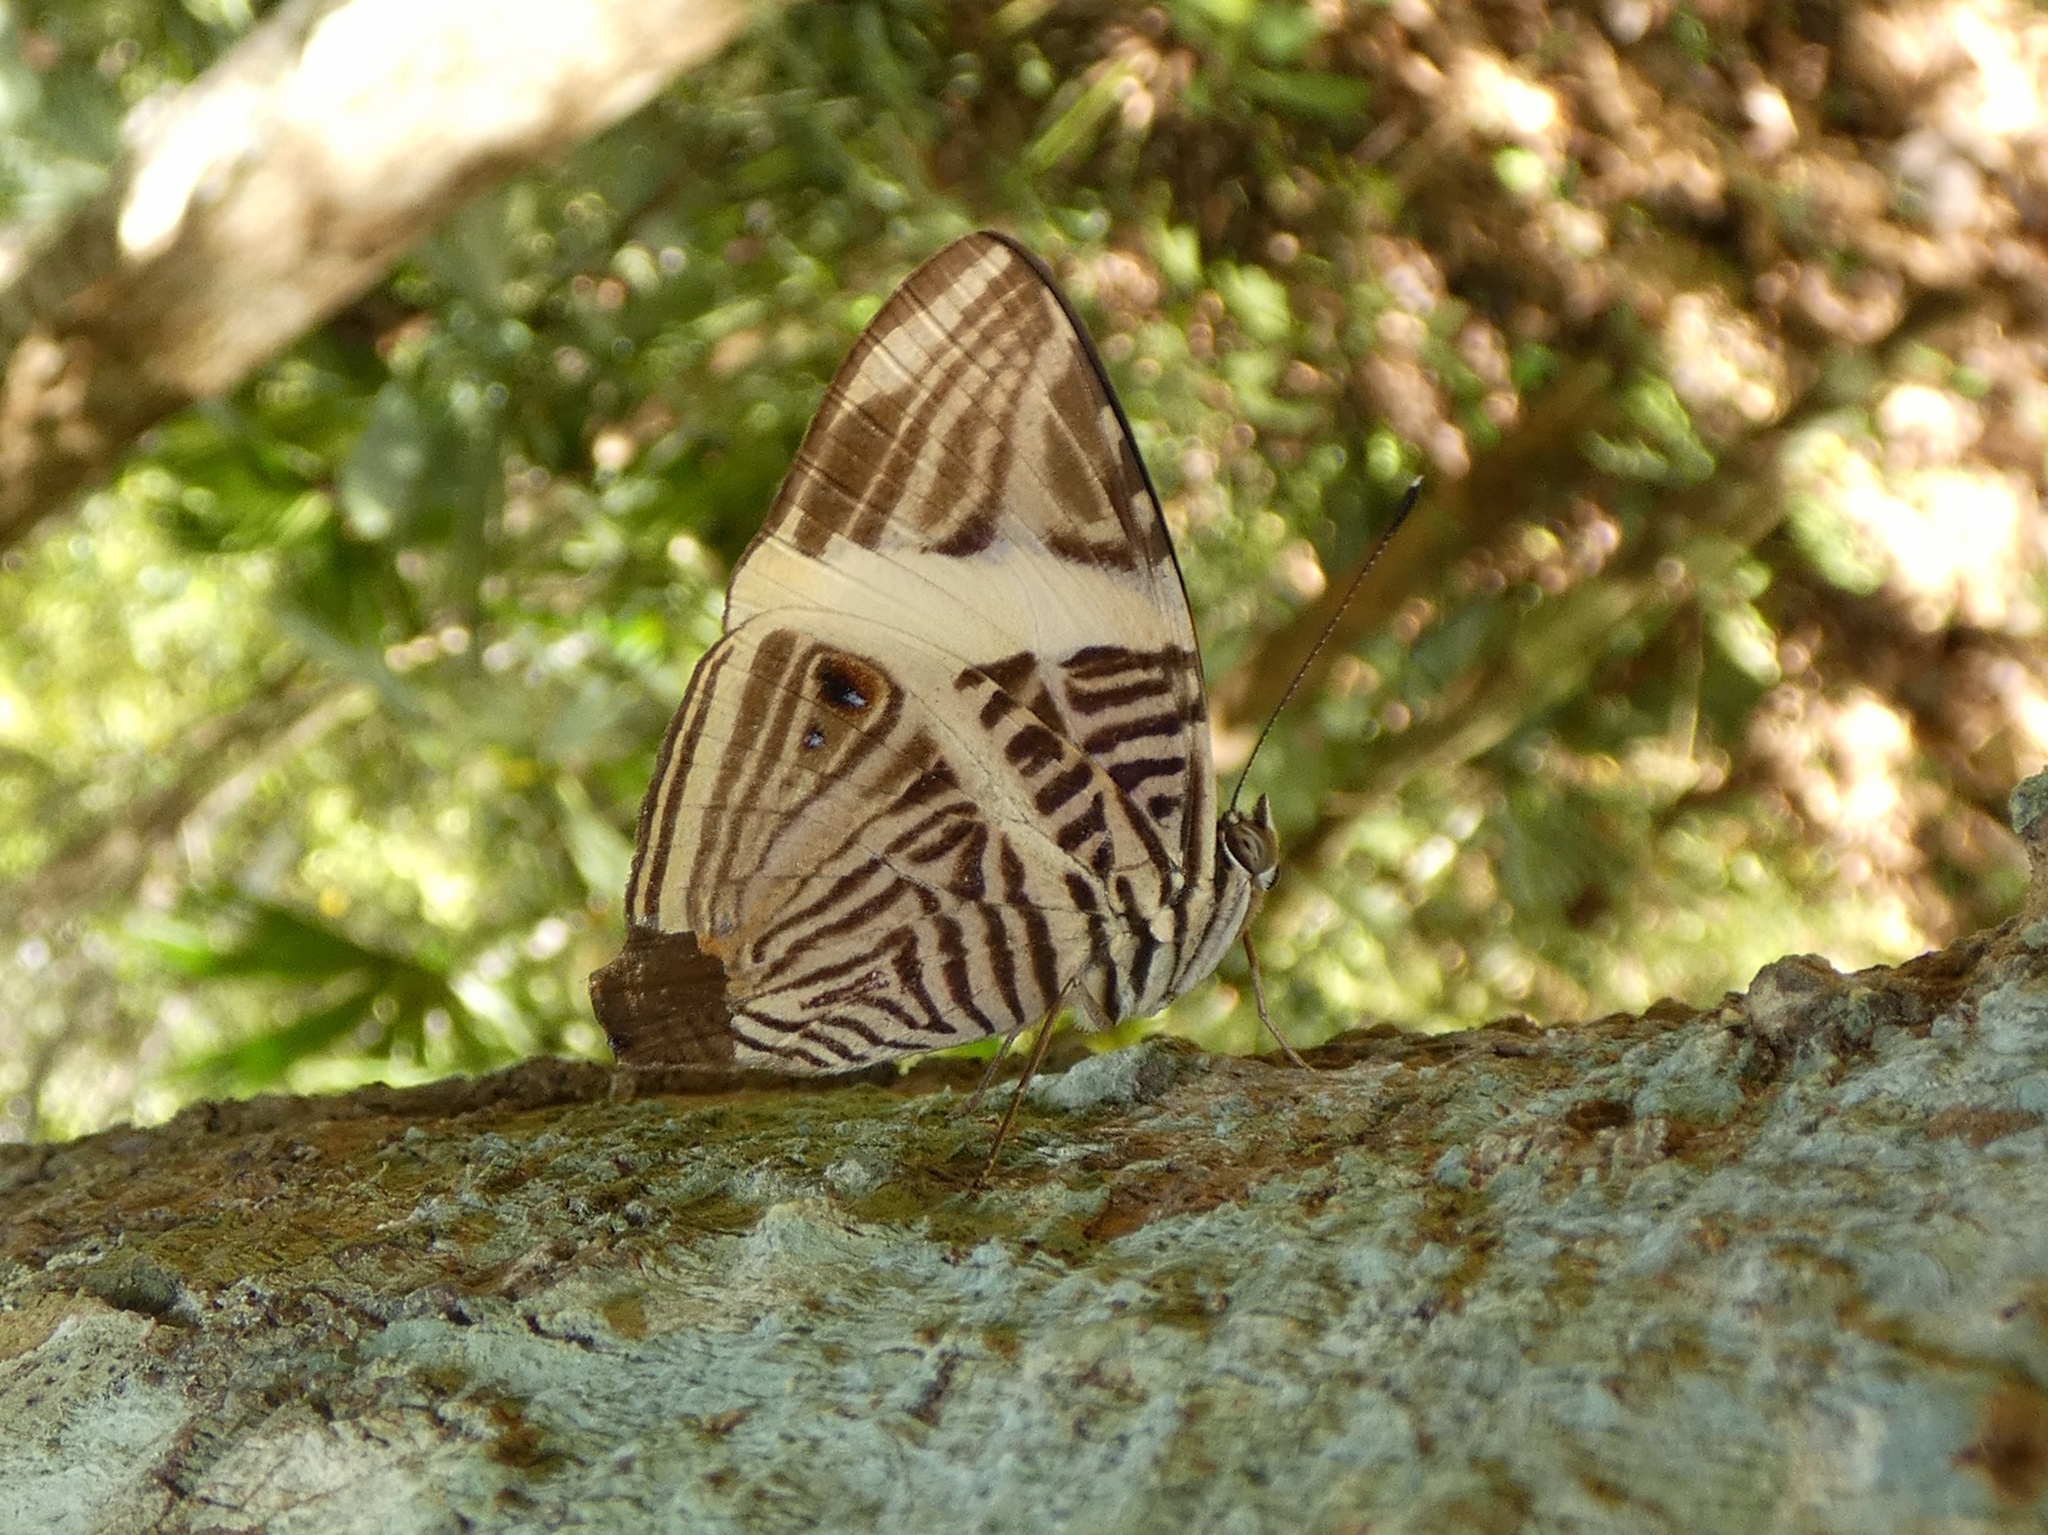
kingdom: Animalia
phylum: Arthropoda
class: Insecta
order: Lepidoptera
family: Nymphalidae
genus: Colobura
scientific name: Colobura dirce
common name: Dirce beauty
